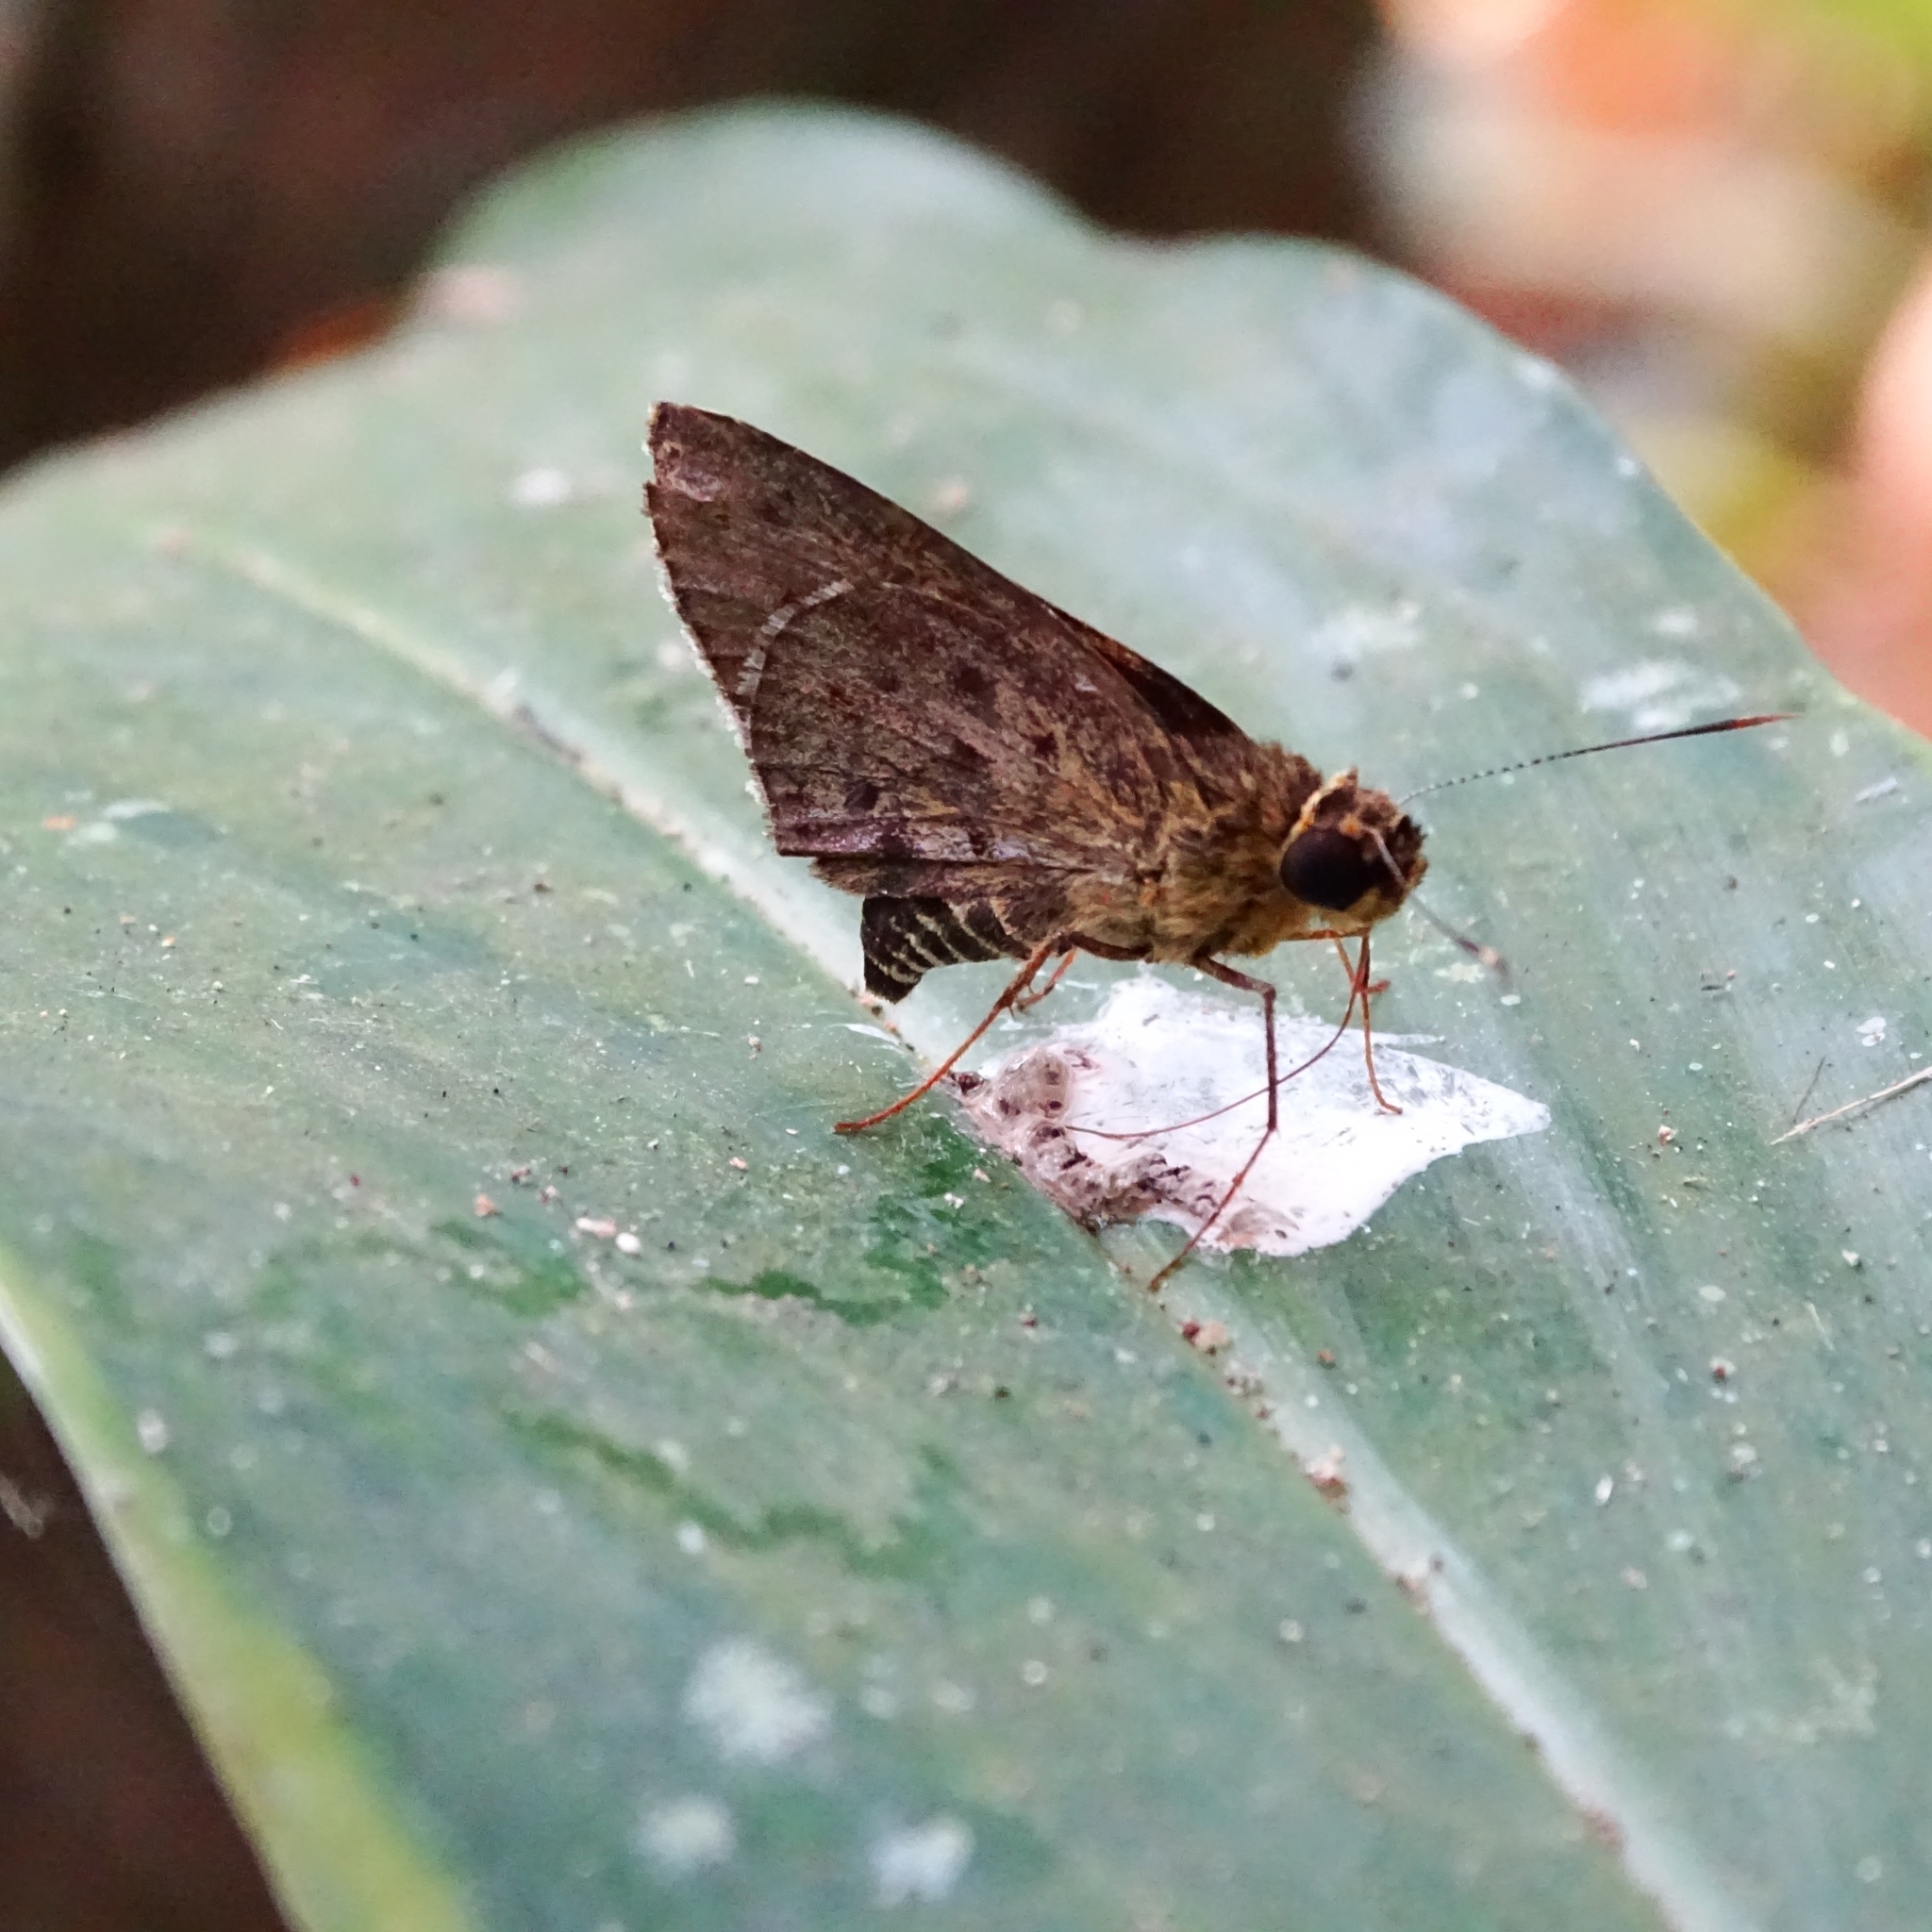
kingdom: Animalia
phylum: Arthropoda
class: Insecta
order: Lepidoptera
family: Hesperiidae
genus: Salanoemia
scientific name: Salanoemia sala
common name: Maculate lancer
